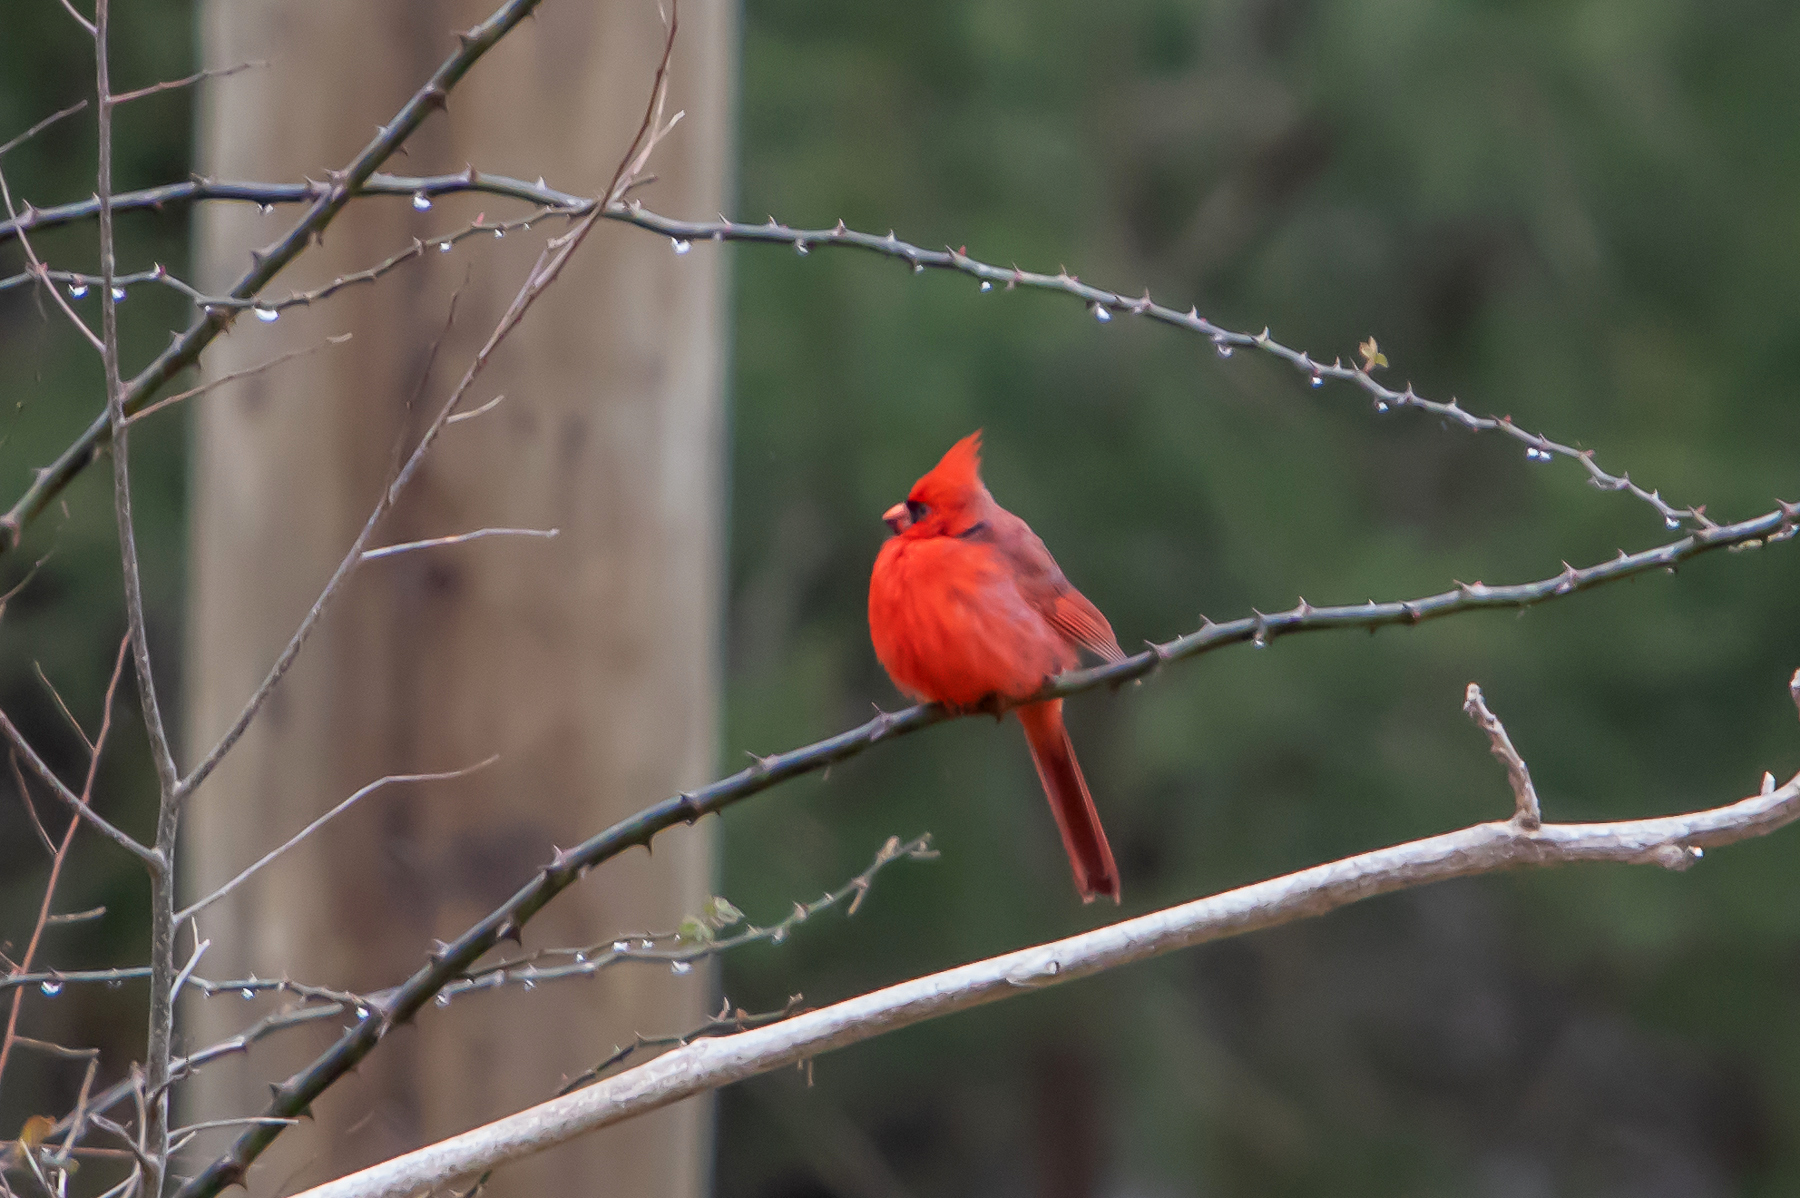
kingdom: Animalia
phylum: Chordata
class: Aves
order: Passeriformes
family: Cardinalidae
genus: Cardinalis
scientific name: Cardinalis cardinalis
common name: Northern cardinal
